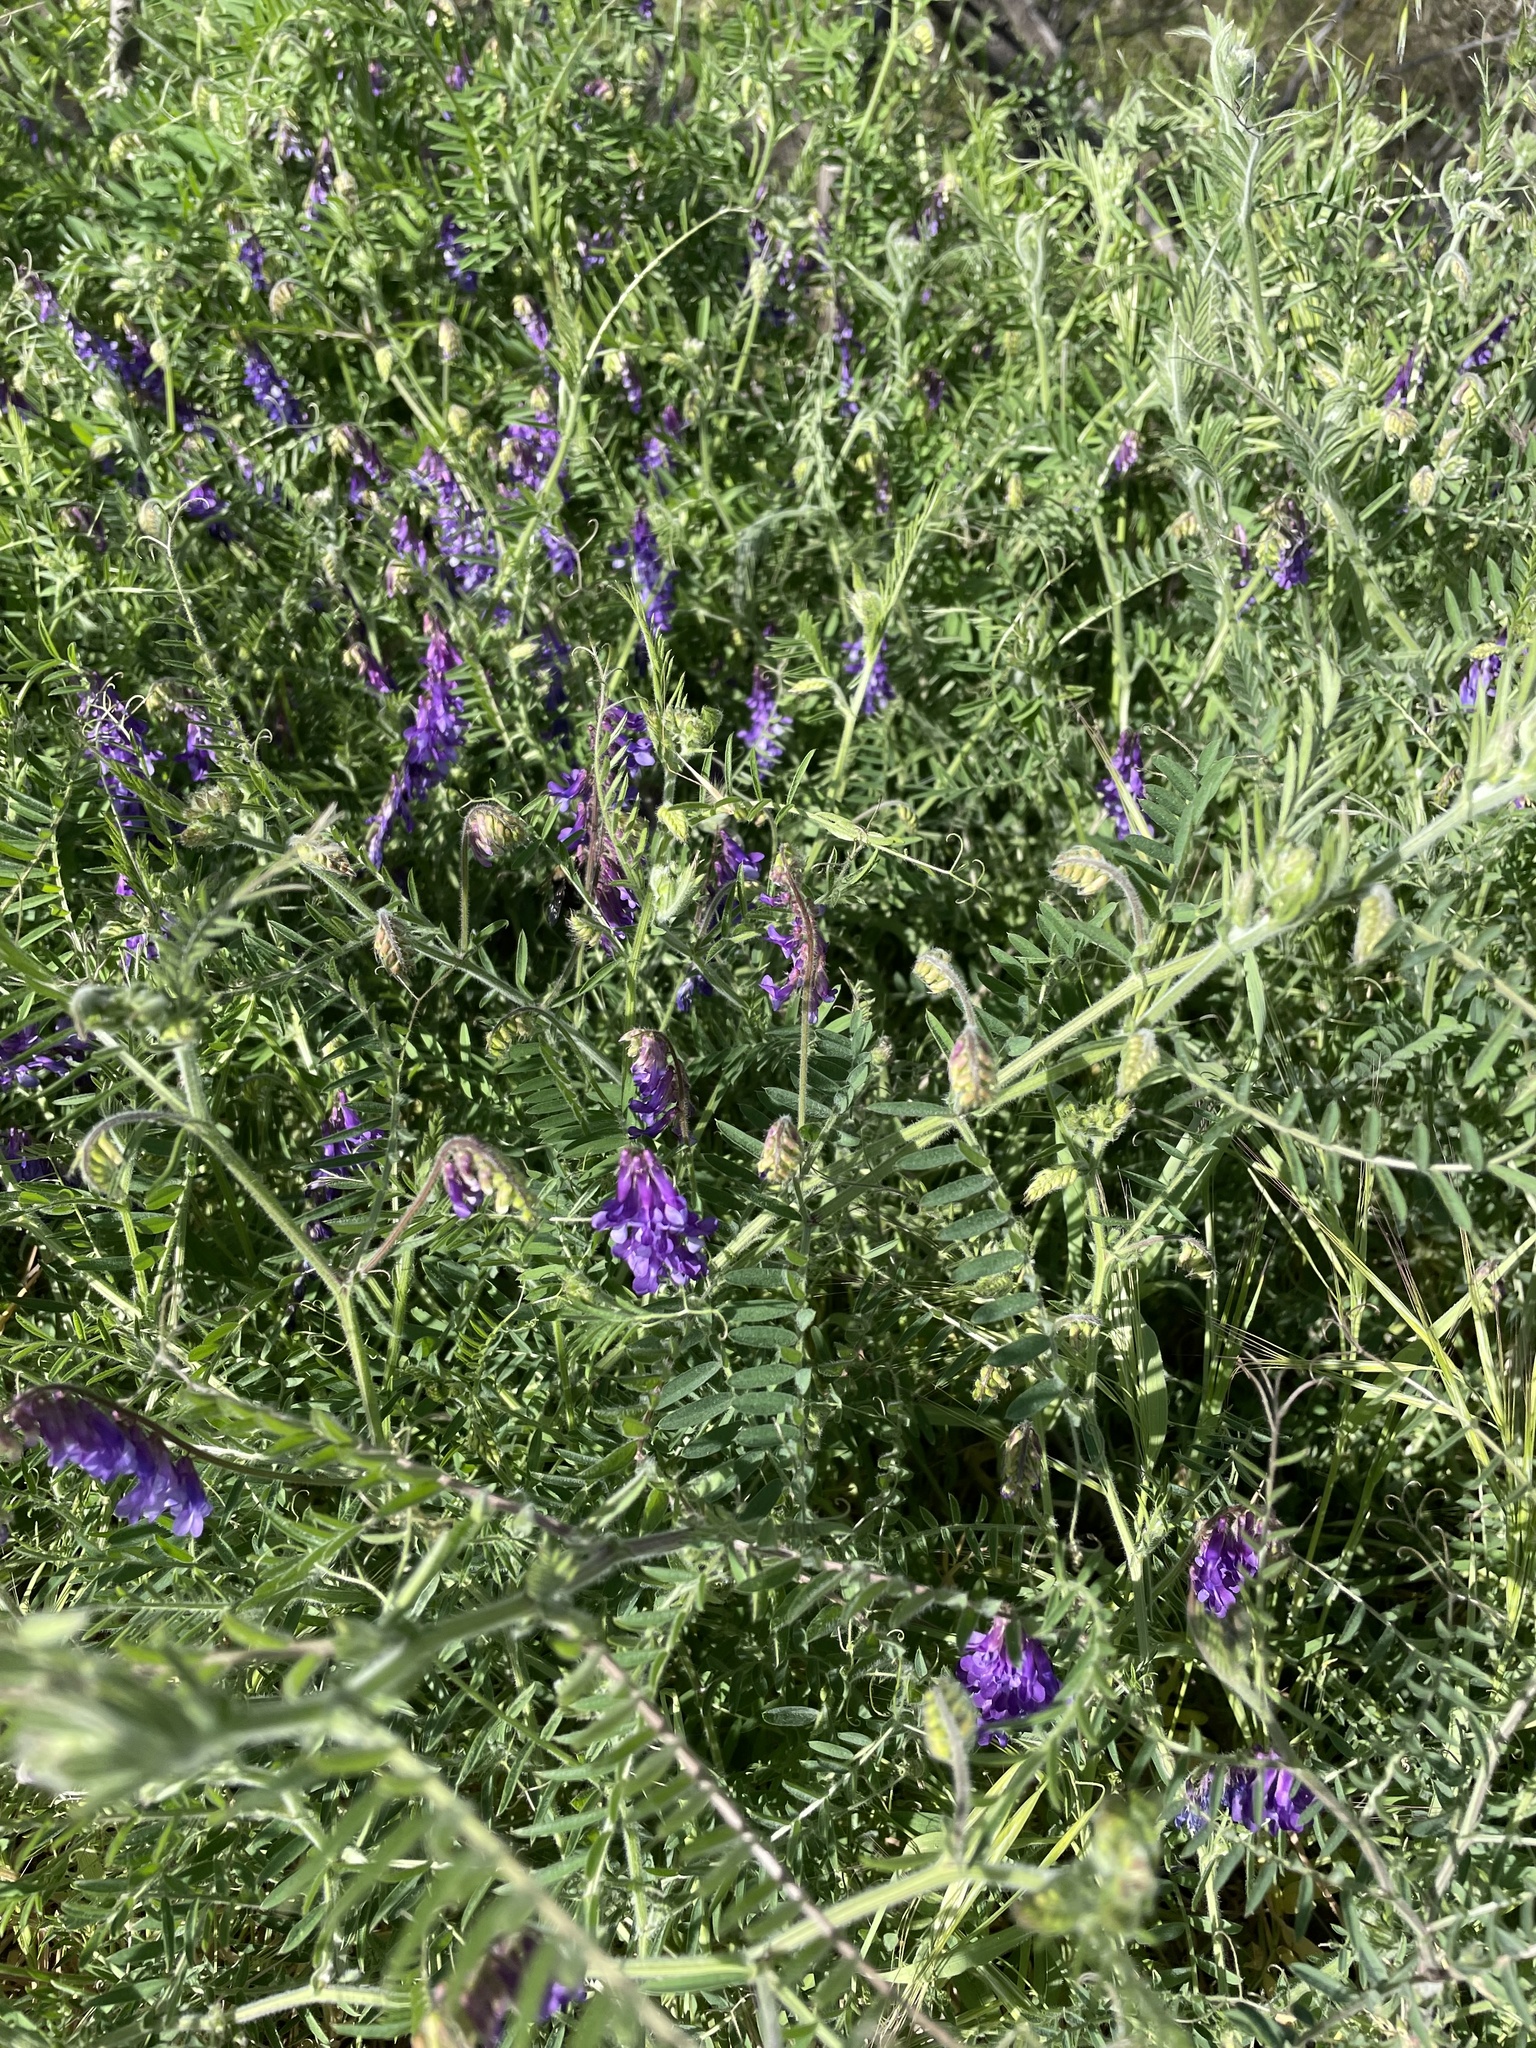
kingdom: Plantae
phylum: Tracheophyta
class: Magnoliopsida
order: Fabales
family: Fabaceae
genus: Vicia
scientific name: Vicia villosa
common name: Fodder vetch
